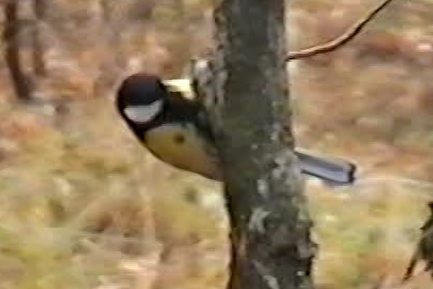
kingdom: Animalia
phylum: Chordata
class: Aves
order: Passeriformes
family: Paridae
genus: Parus
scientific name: Parus major
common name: Great tit
